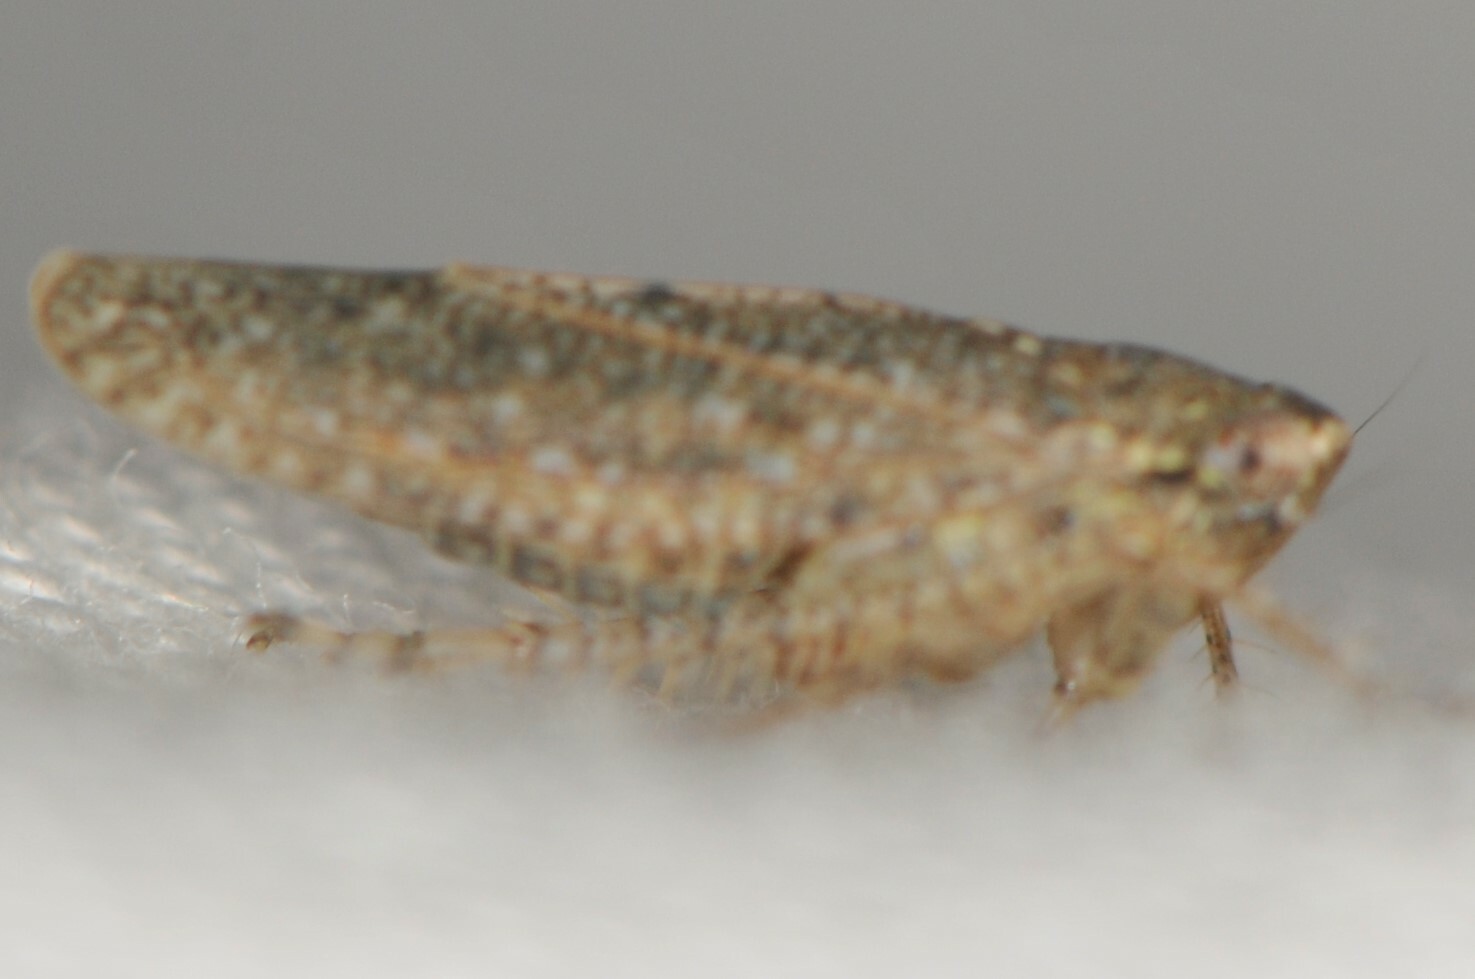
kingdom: Animalia
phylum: Arthropoda
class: Insecta
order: Hemiptera
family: Cicadellidae
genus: Texananus
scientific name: Texananus
